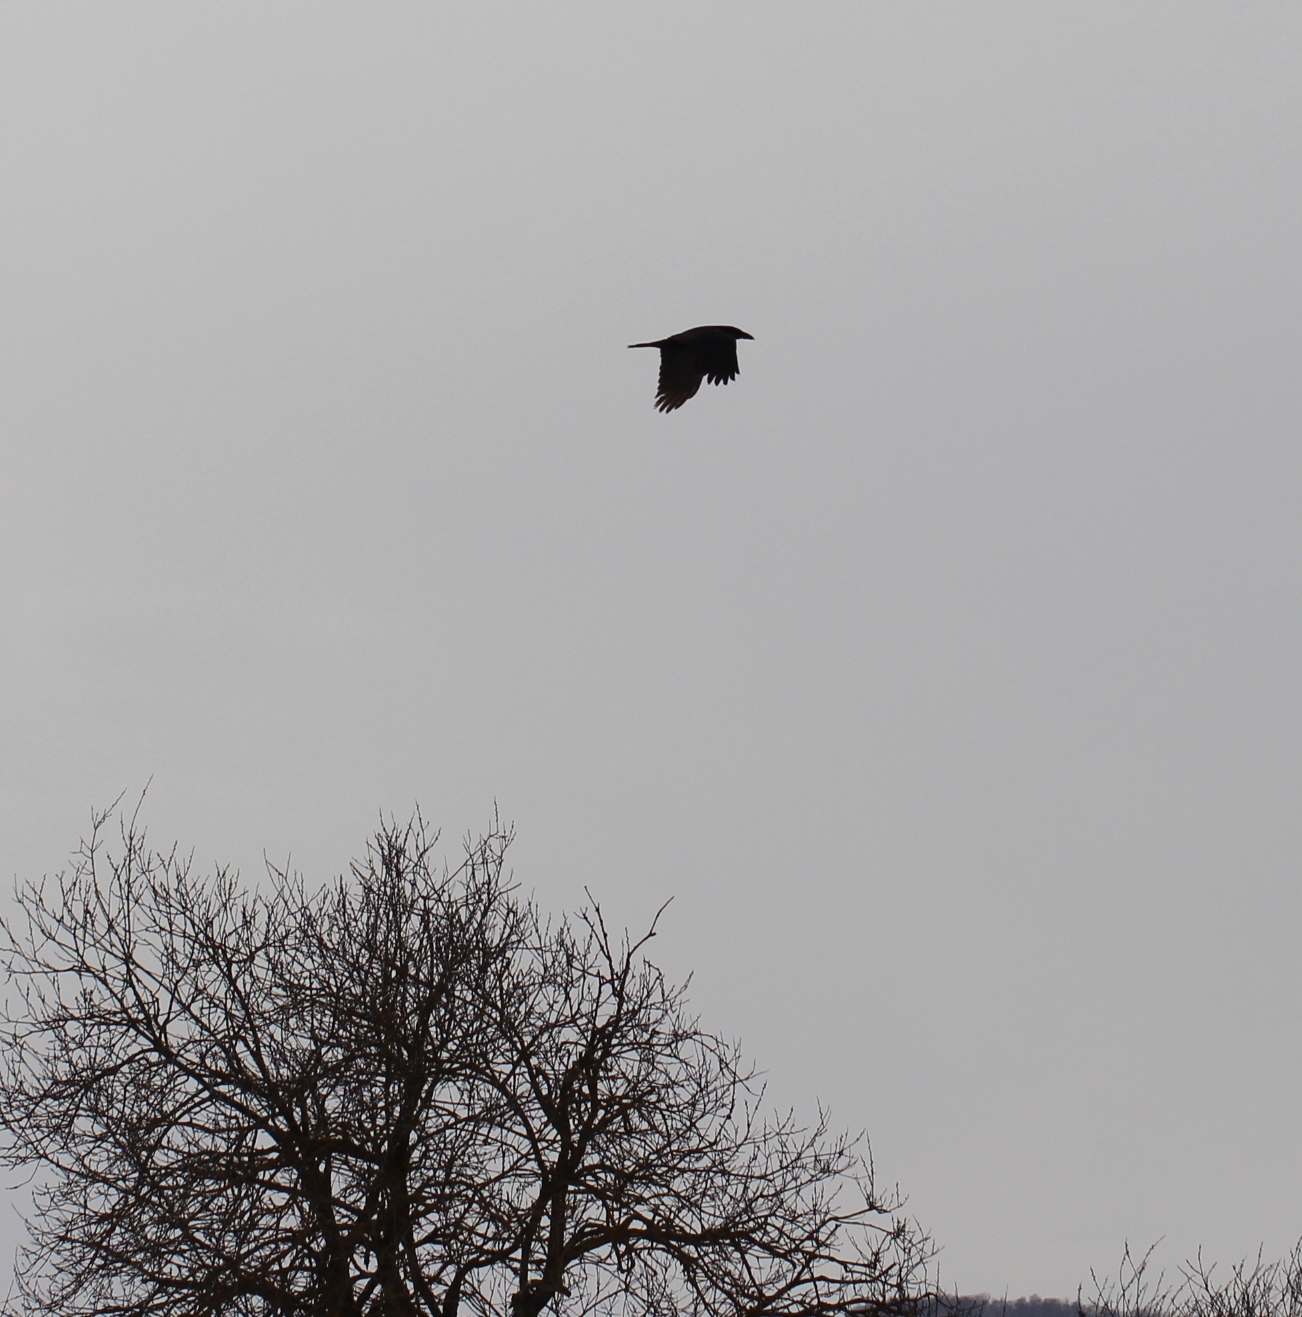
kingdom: Animalia
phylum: Chordata
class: Aves
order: Passeriformes
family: Corvidae
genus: Corvus
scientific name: Corvus corax
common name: Common raven
